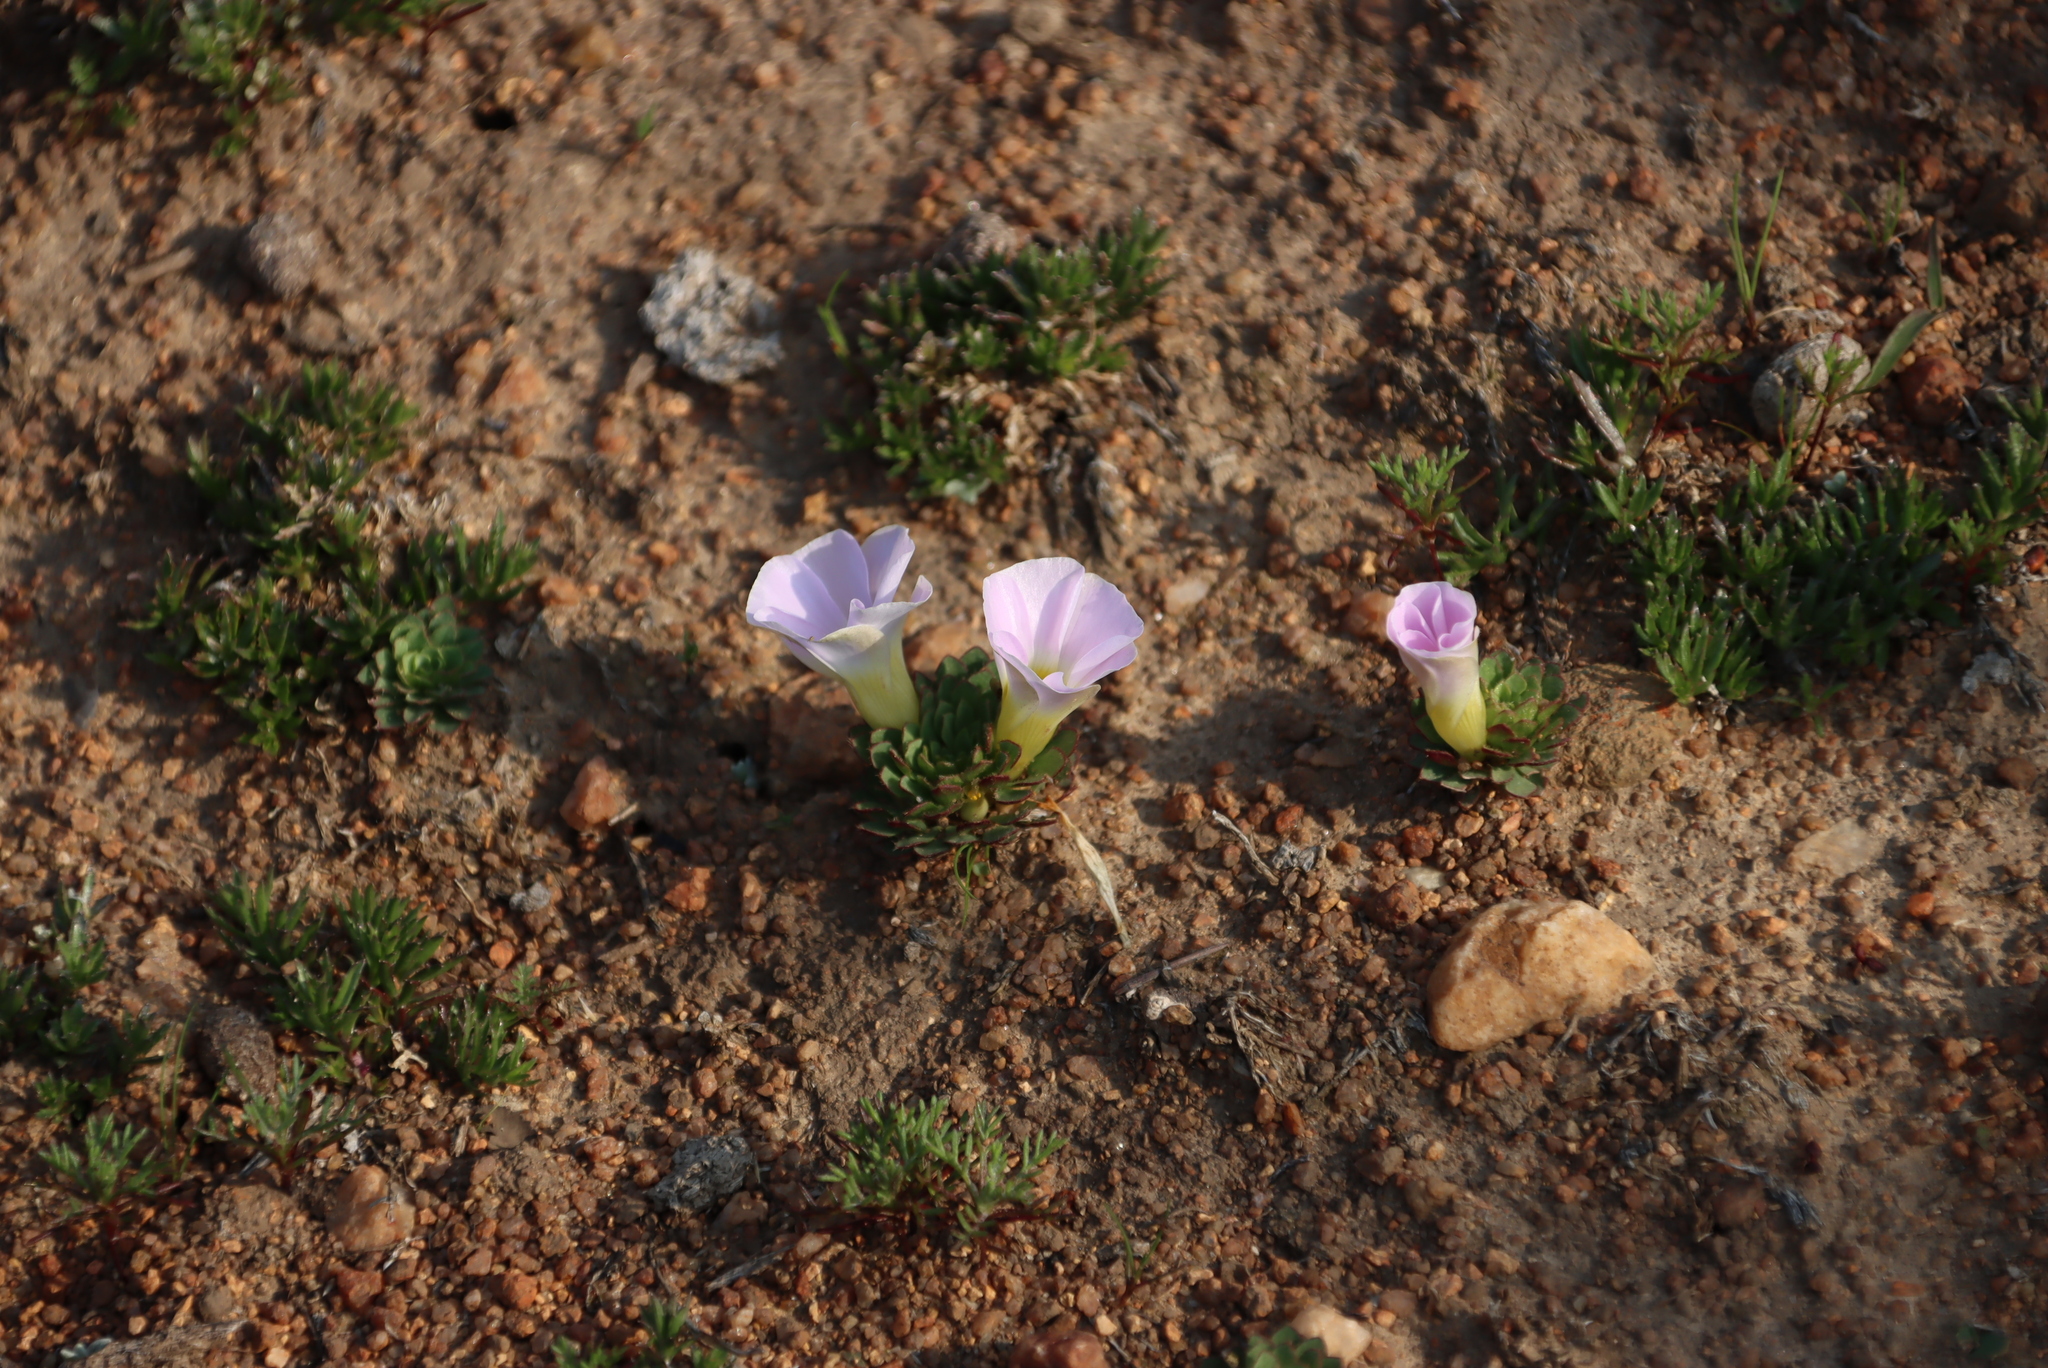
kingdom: Plantae
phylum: Tracheophyta
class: Magnoliopsida
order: Oxalidales
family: Oxalidaceae
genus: Oxalis
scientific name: Oxalis adenodes
